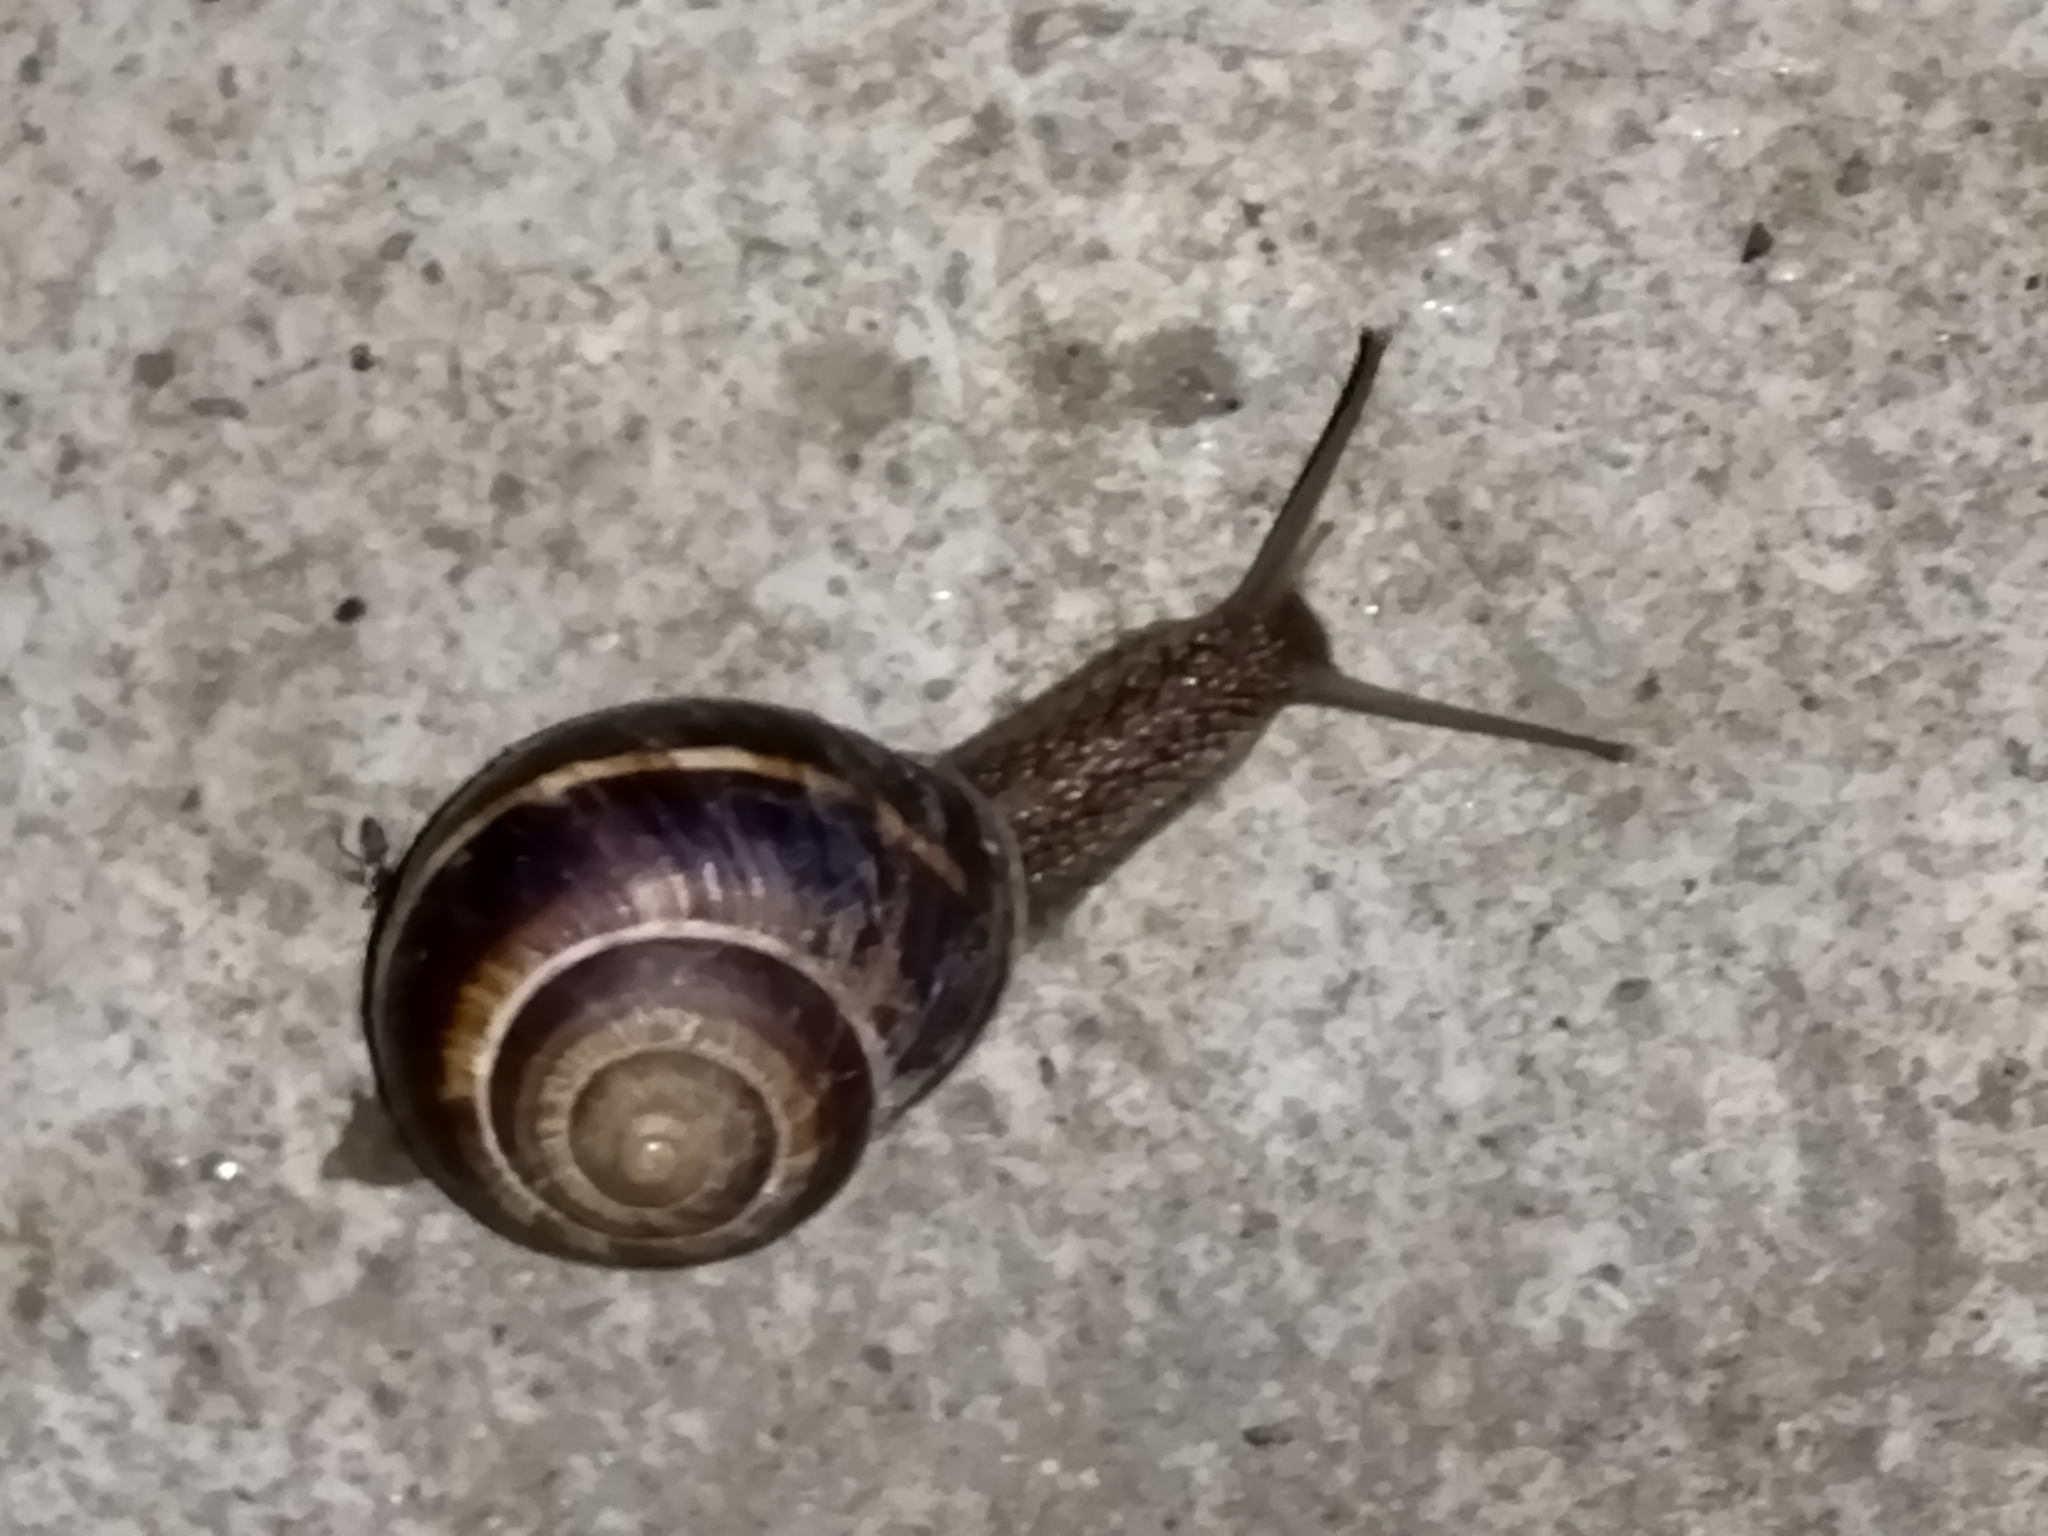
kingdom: Animalia
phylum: Mollusca
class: Gastropoda
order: Stylommatophora
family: Helicidae
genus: Helix
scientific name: Helix lucorum
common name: Turkish snail
